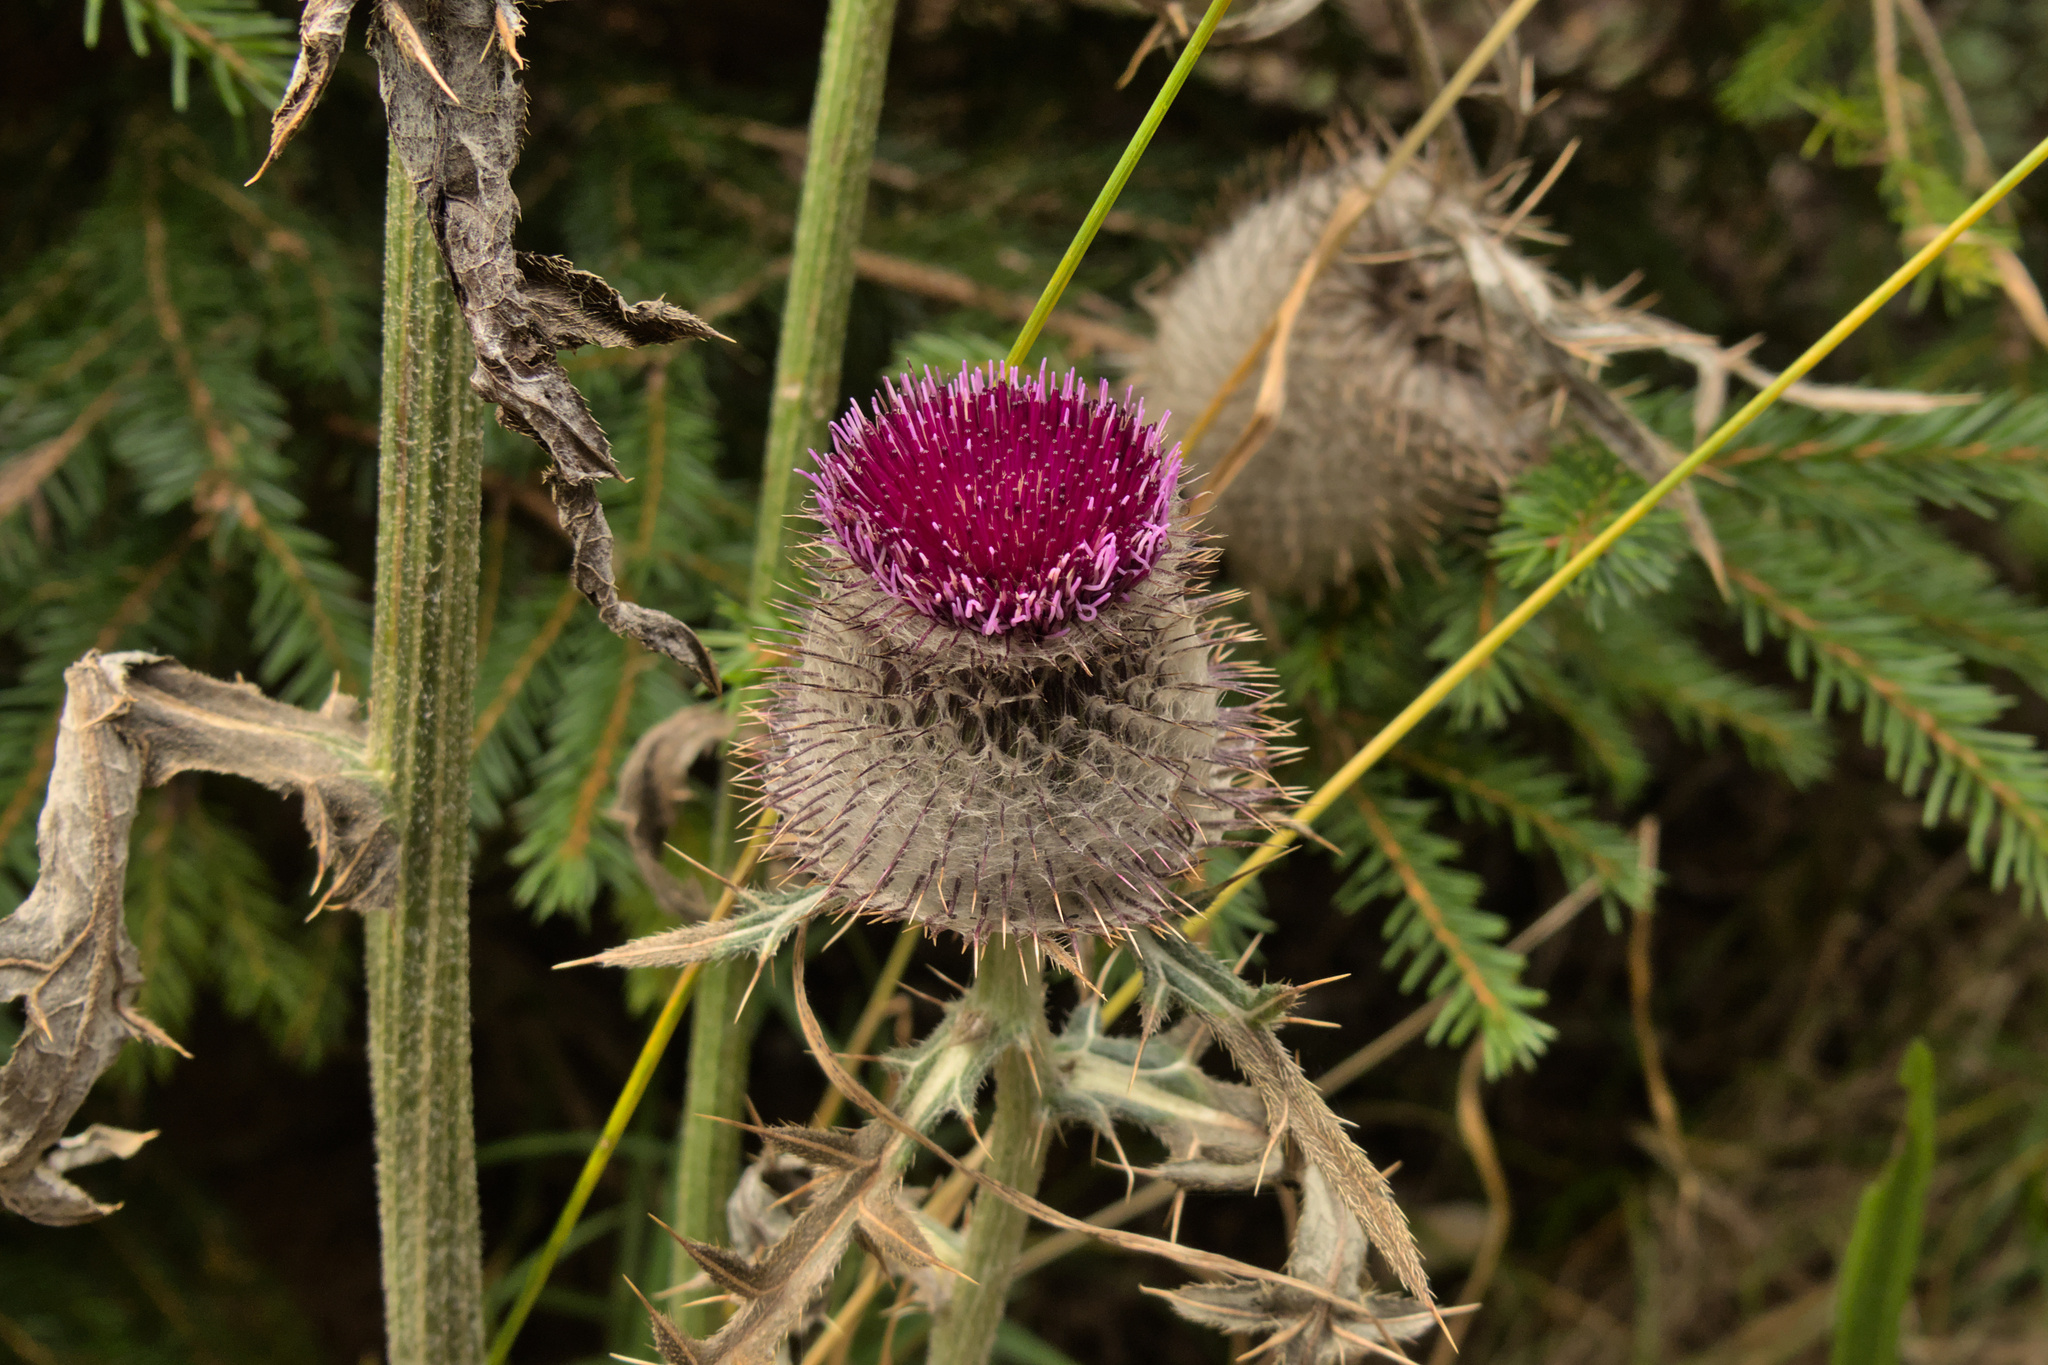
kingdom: Plantae
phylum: Tracheophyta
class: Magnoliopsida
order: Asterales
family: Asteraceae
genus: Lophiolepis
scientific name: Lophiolepis eriophora
